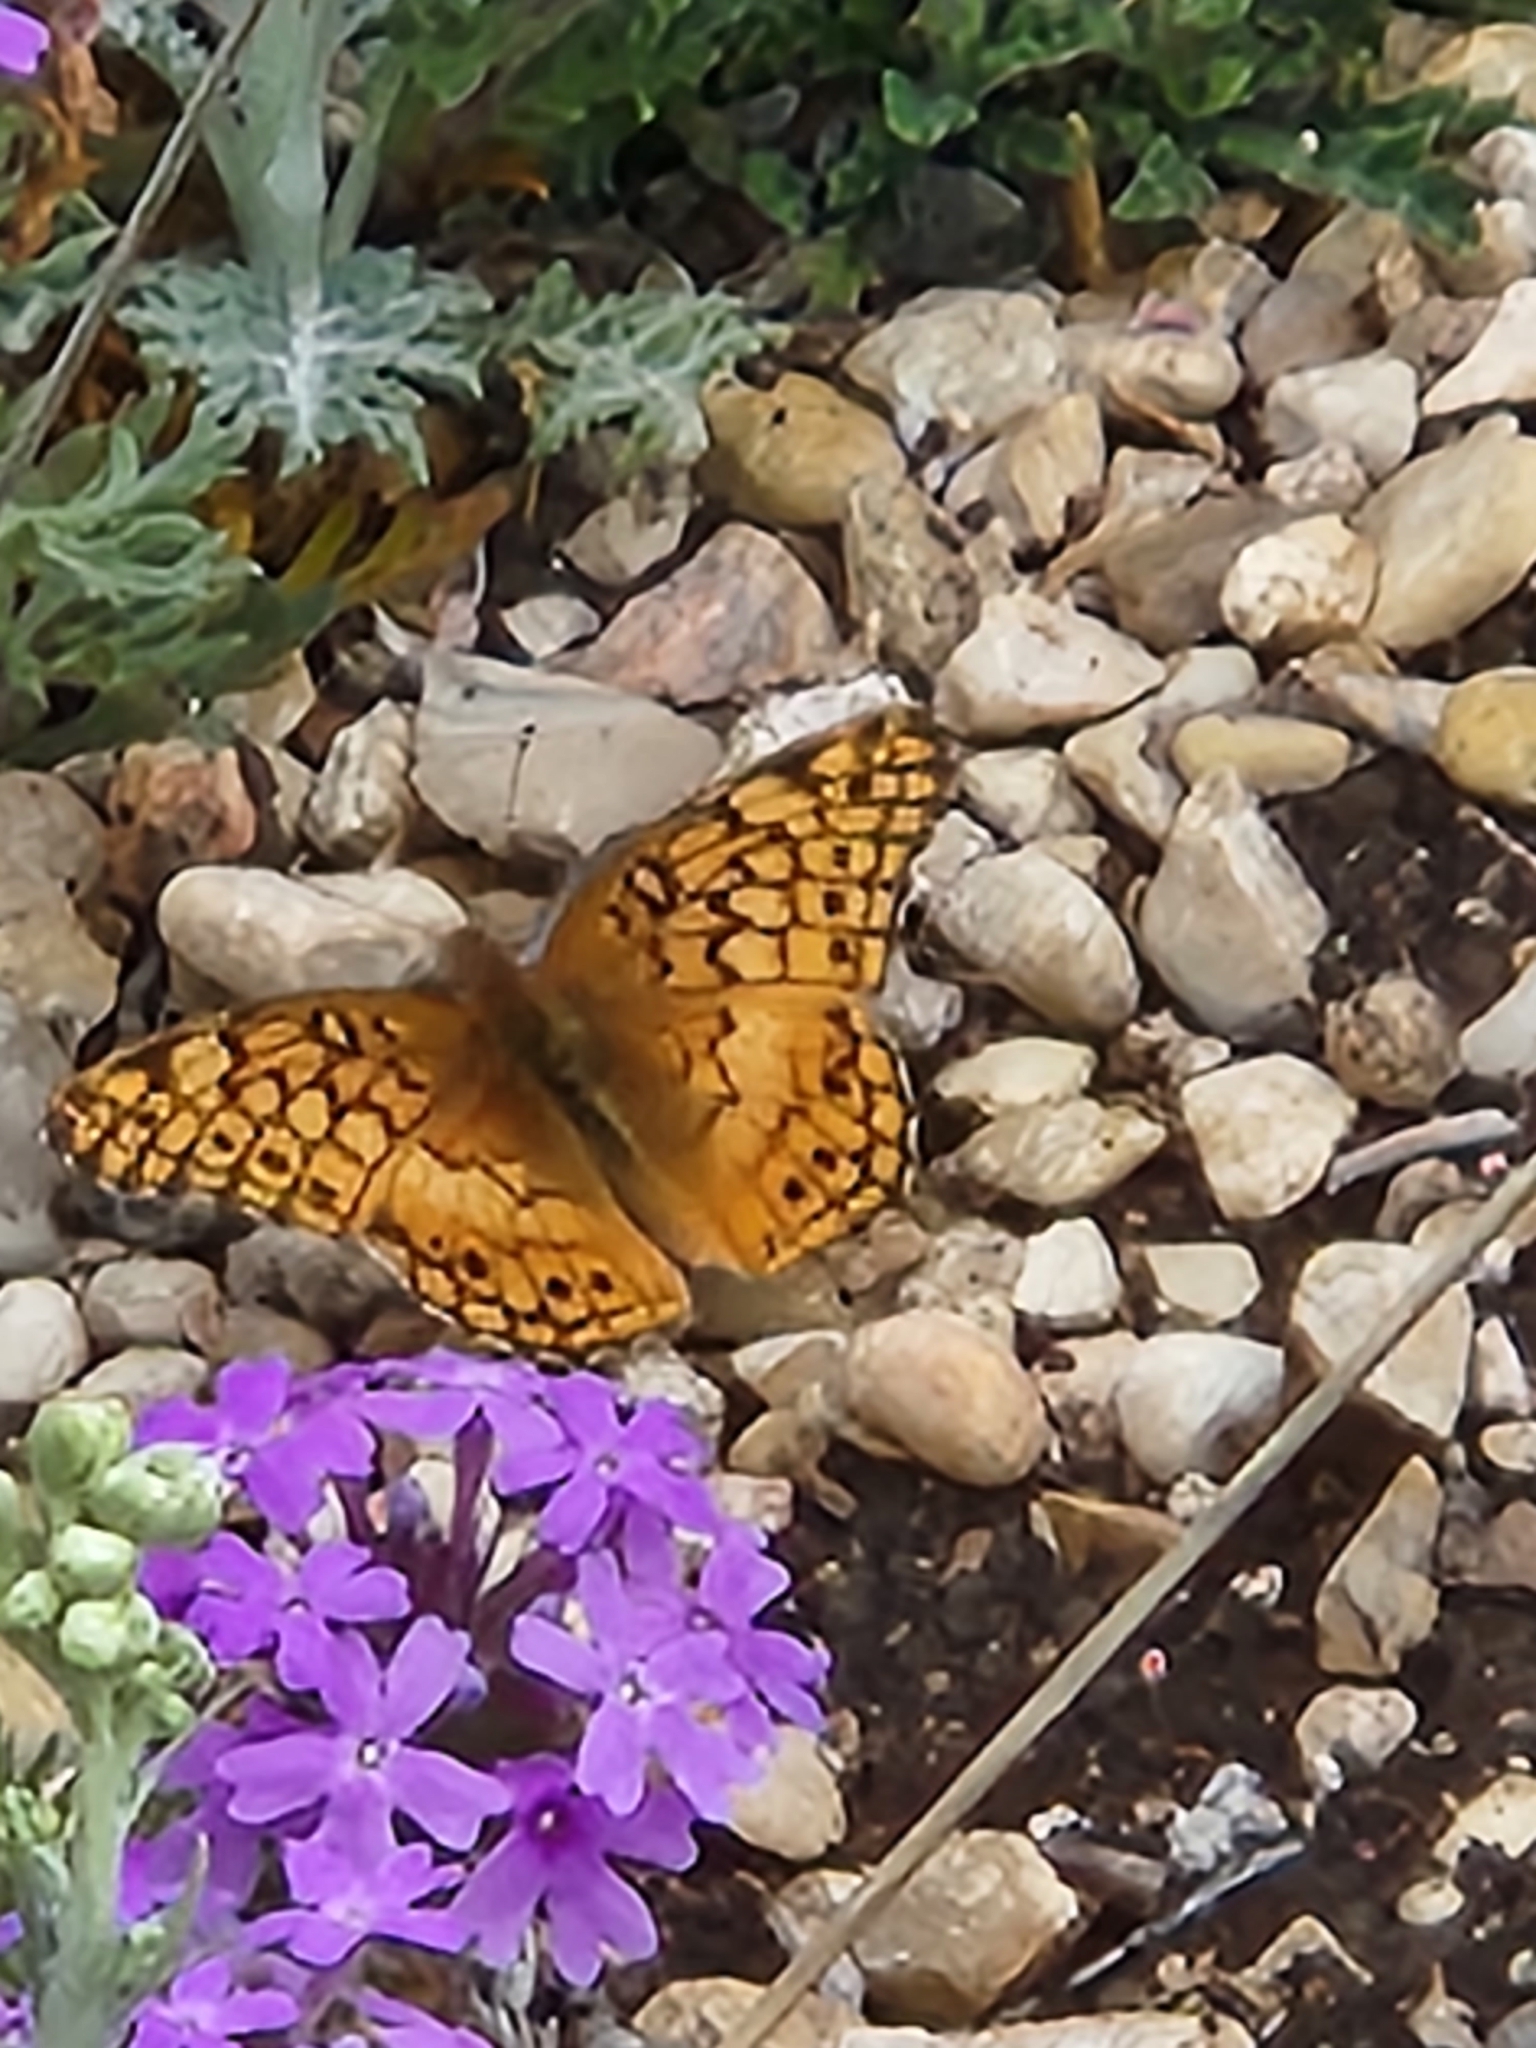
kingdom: Animalia
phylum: Arthropoda
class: Insecta
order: Lepidoptera
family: Nymphalidae
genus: Euptoieta
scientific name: Euptoieta claudia
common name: Variegated fritillary
